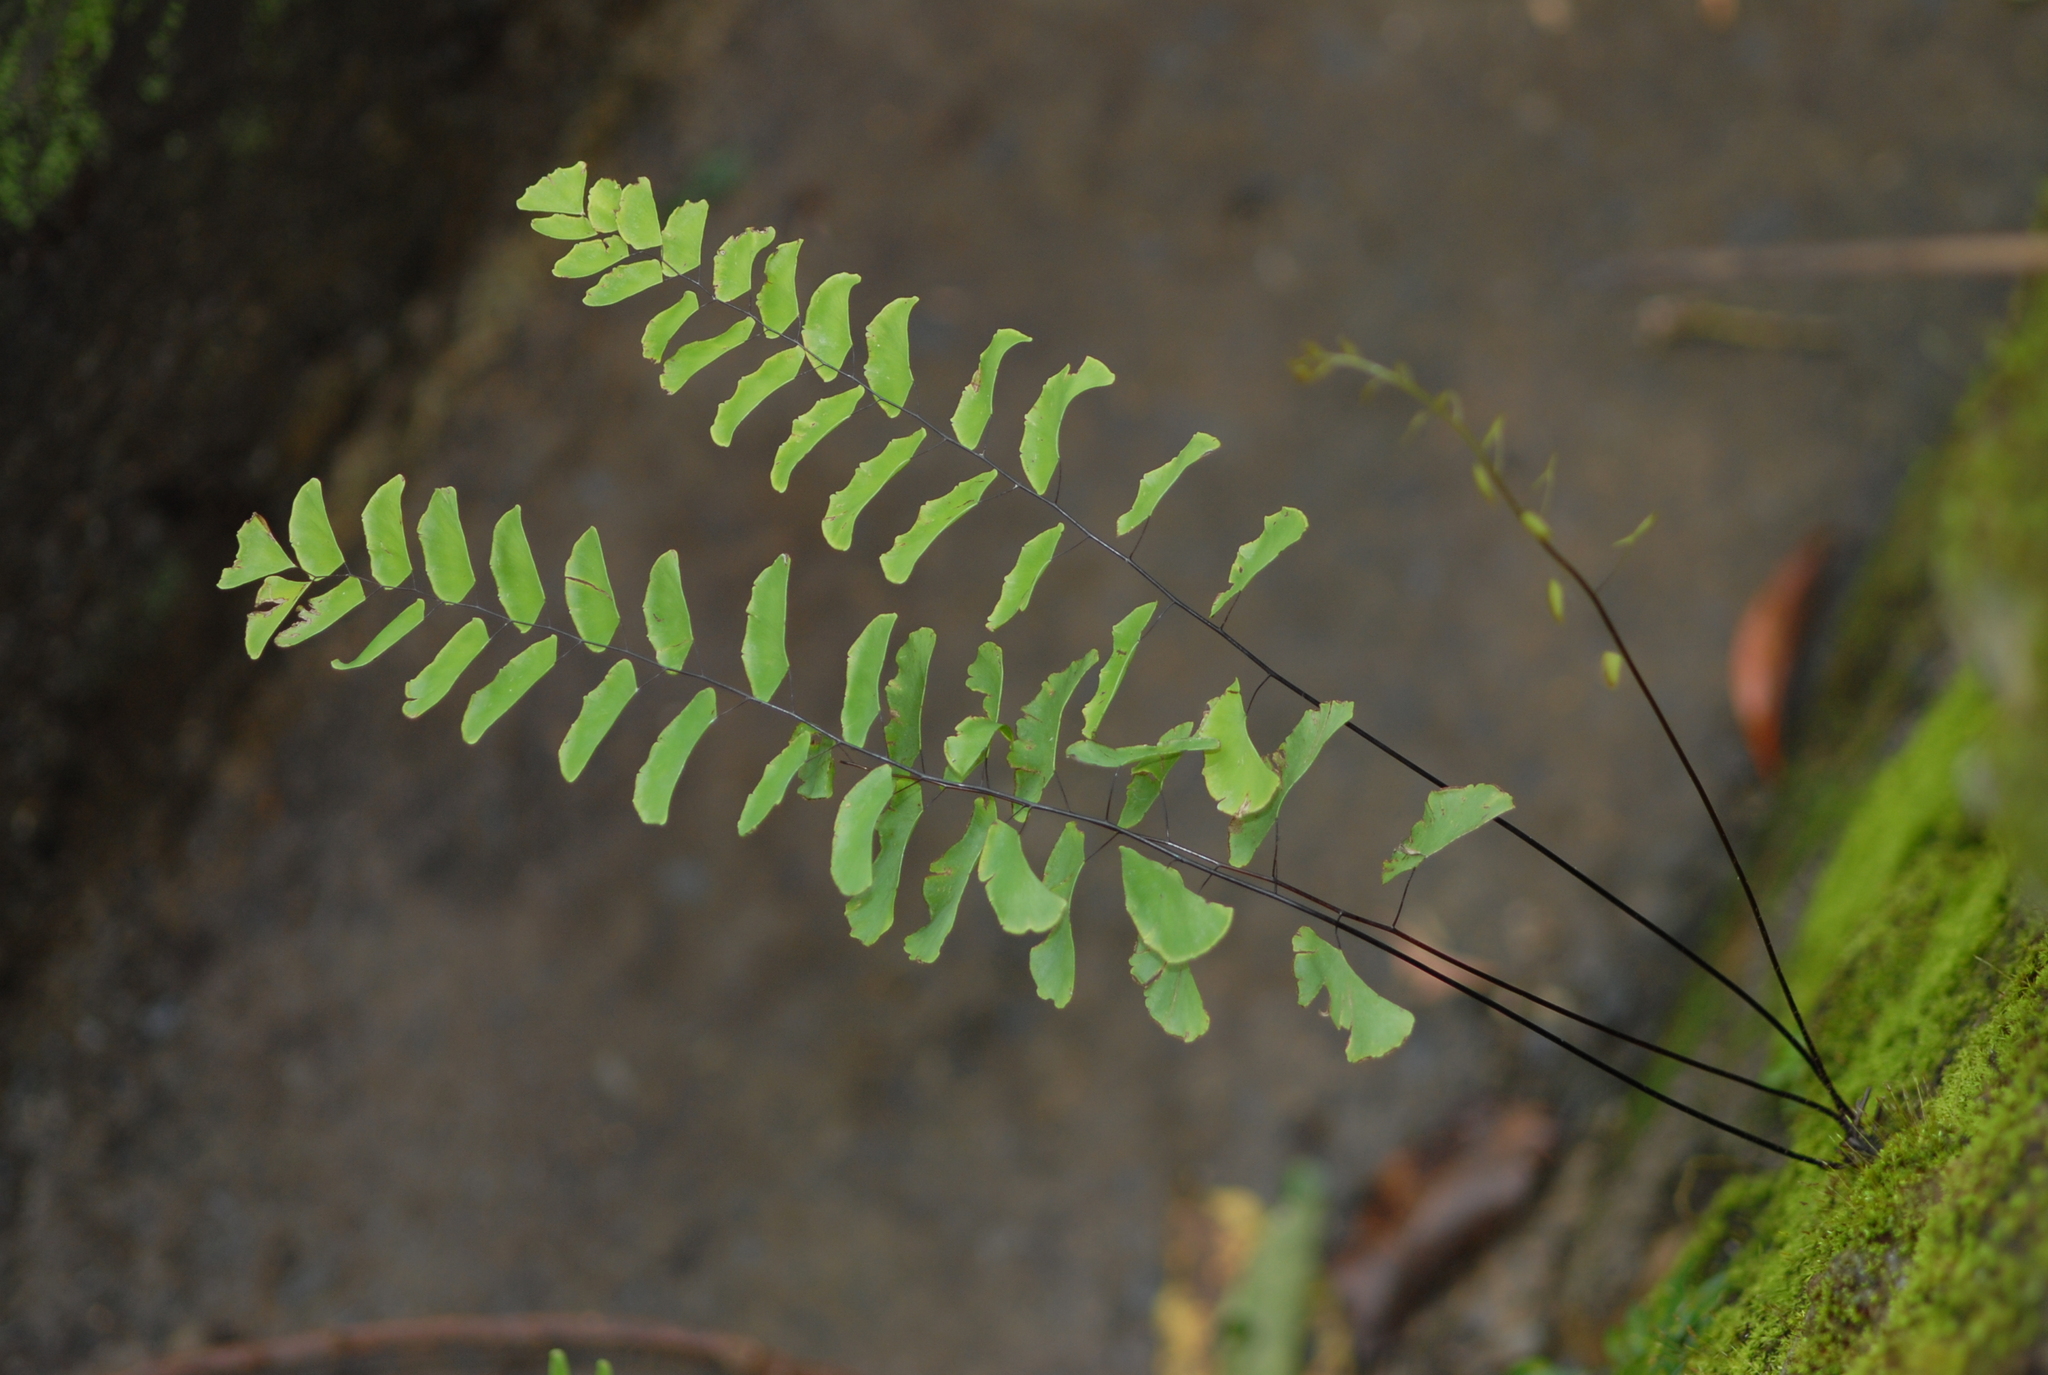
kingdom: Plantae
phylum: Tracheophyta
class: Polypodiopsida
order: Polypodiales
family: Pteridaceae
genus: Adiantum
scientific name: Adiantum philippense
